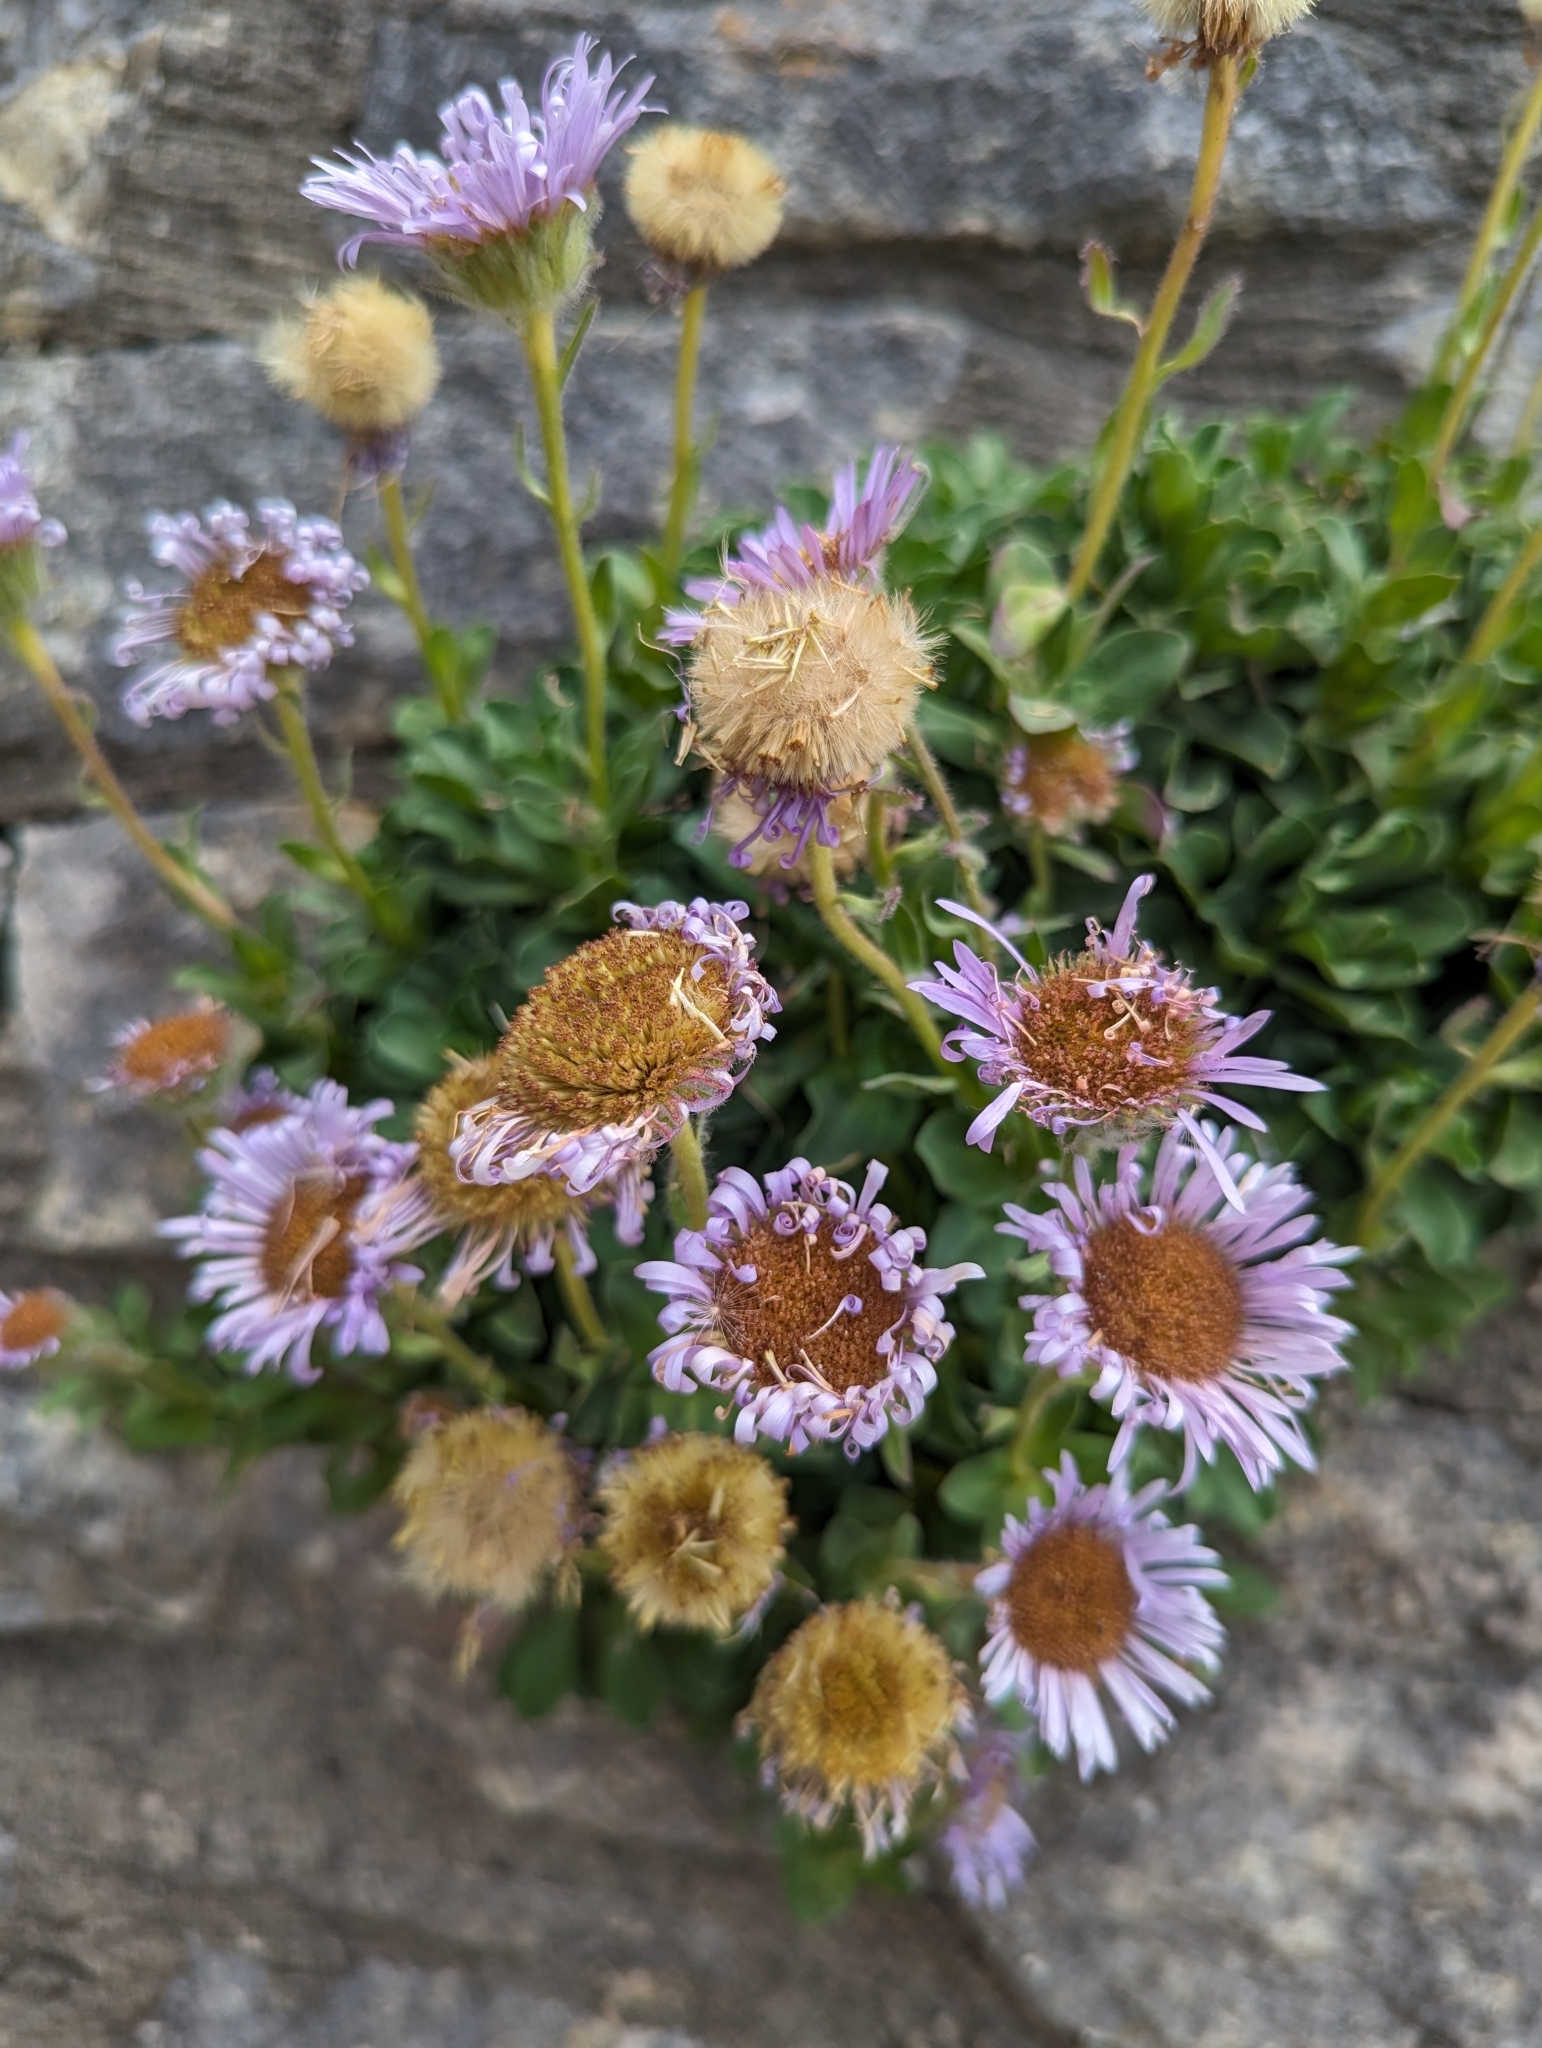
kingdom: Plantae
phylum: Tracheophyta
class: Magnoliopsida
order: Asterales
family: Asteraceae
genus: Erigeron
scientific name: Erigeron glaucus
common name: Seaside daisy
